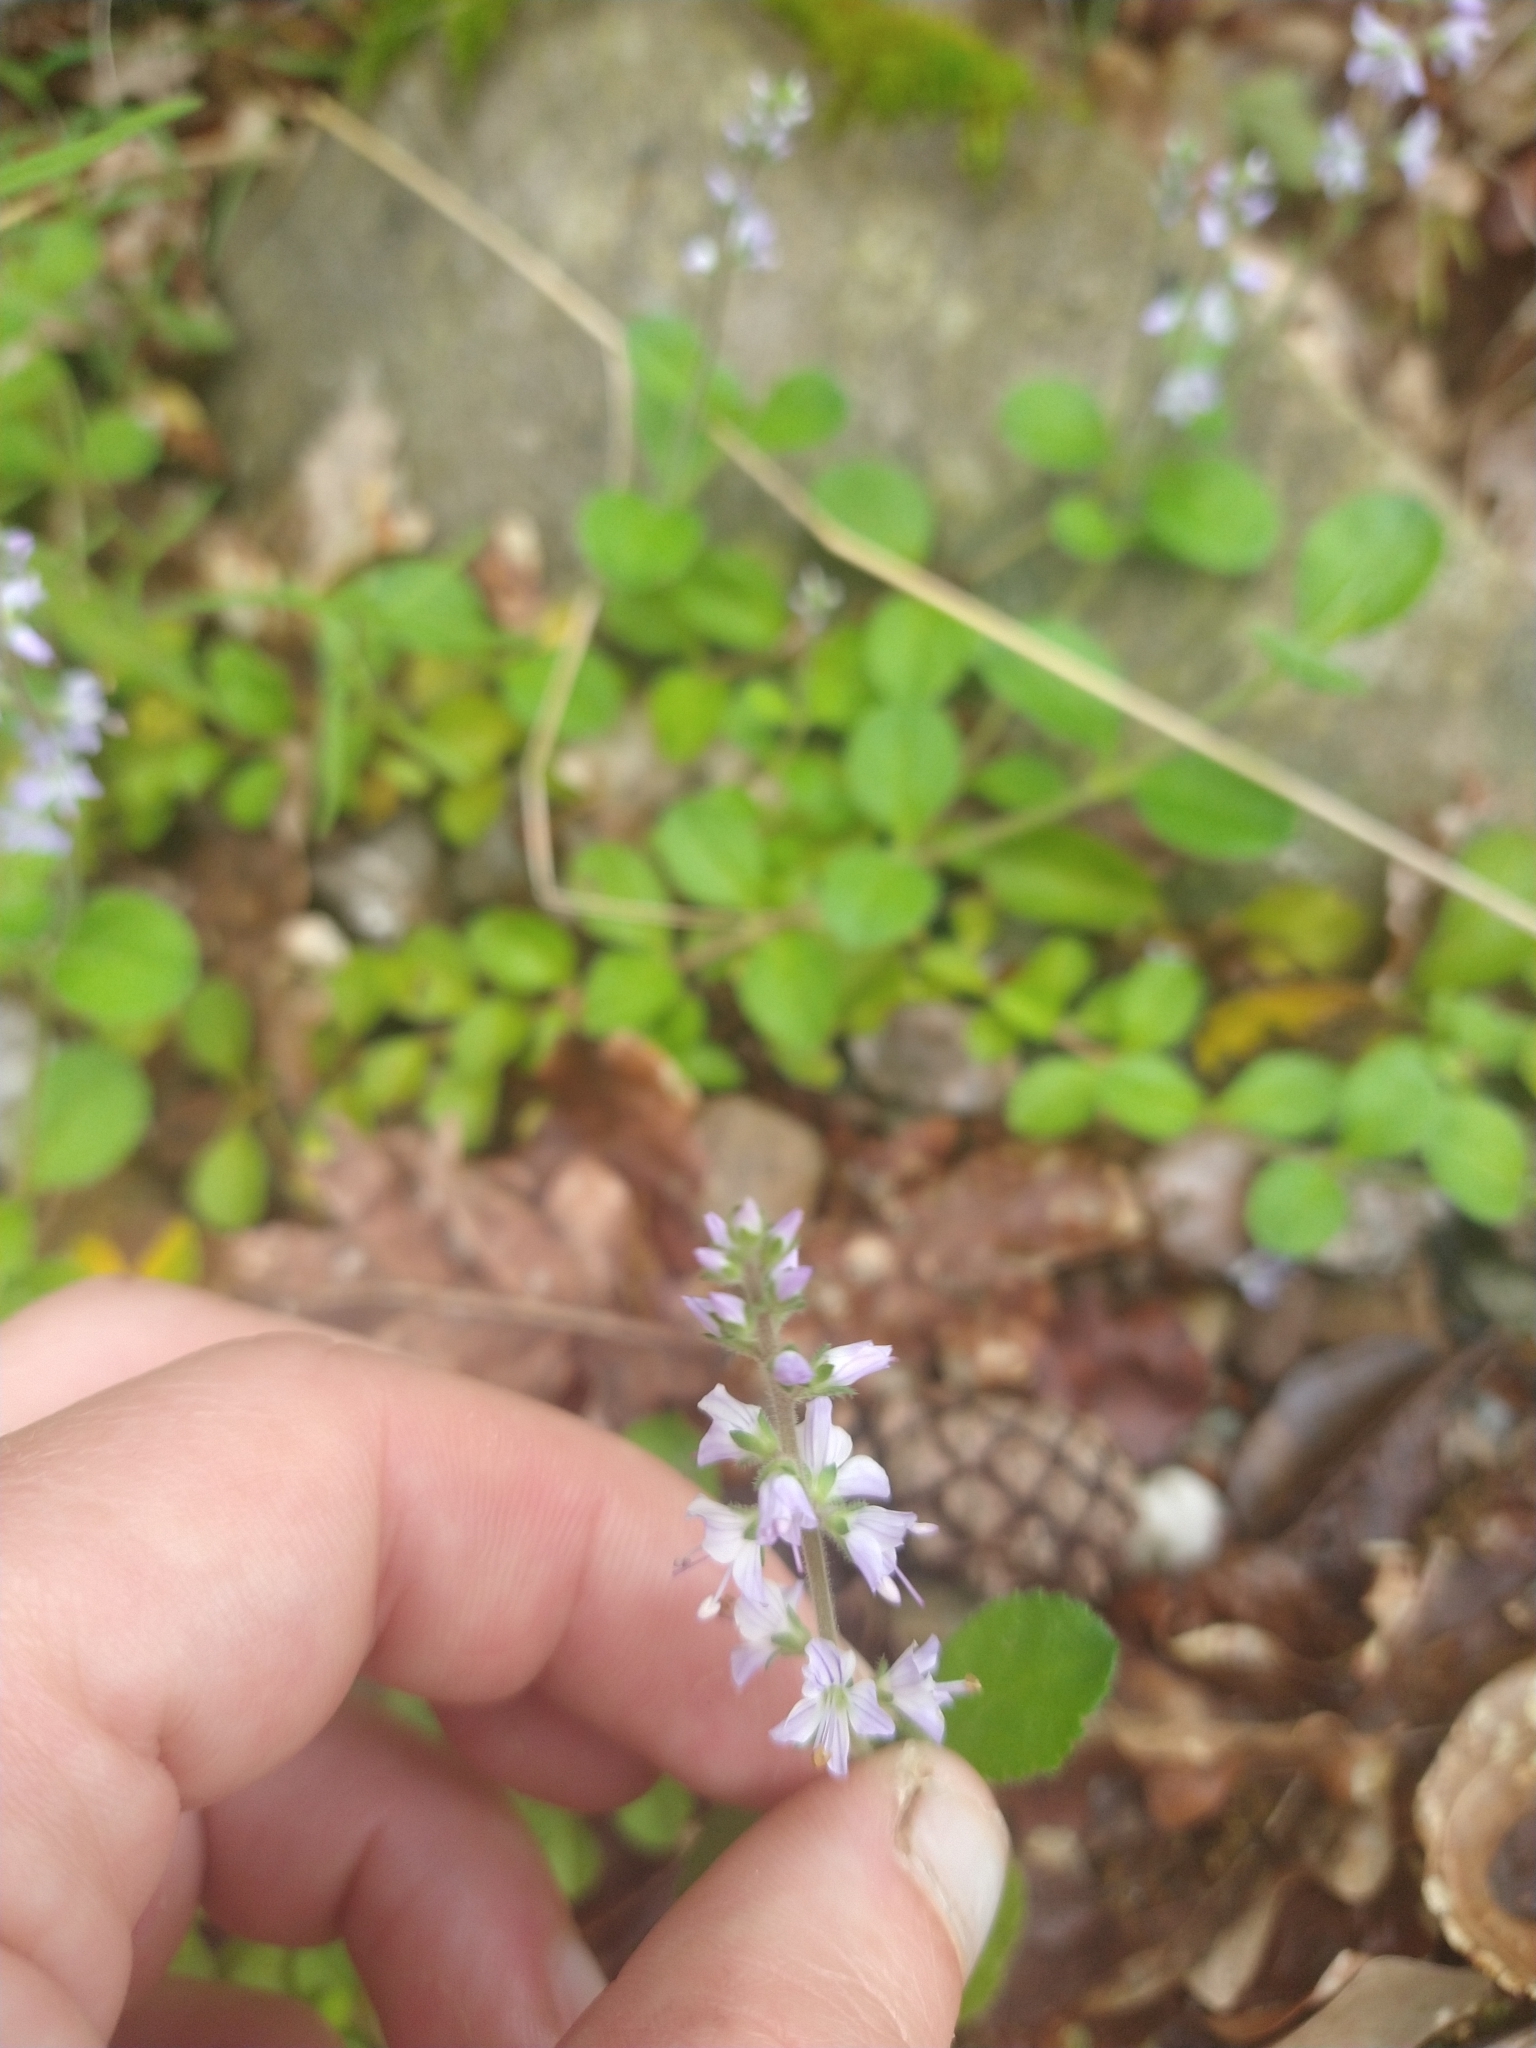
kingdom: Plantae
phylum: Tracheophyta
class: Magnoliopsida
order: Lamiales
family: Plantaginaceae
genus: Veronica
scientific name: Veronica officinalis
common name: Common speedwell
